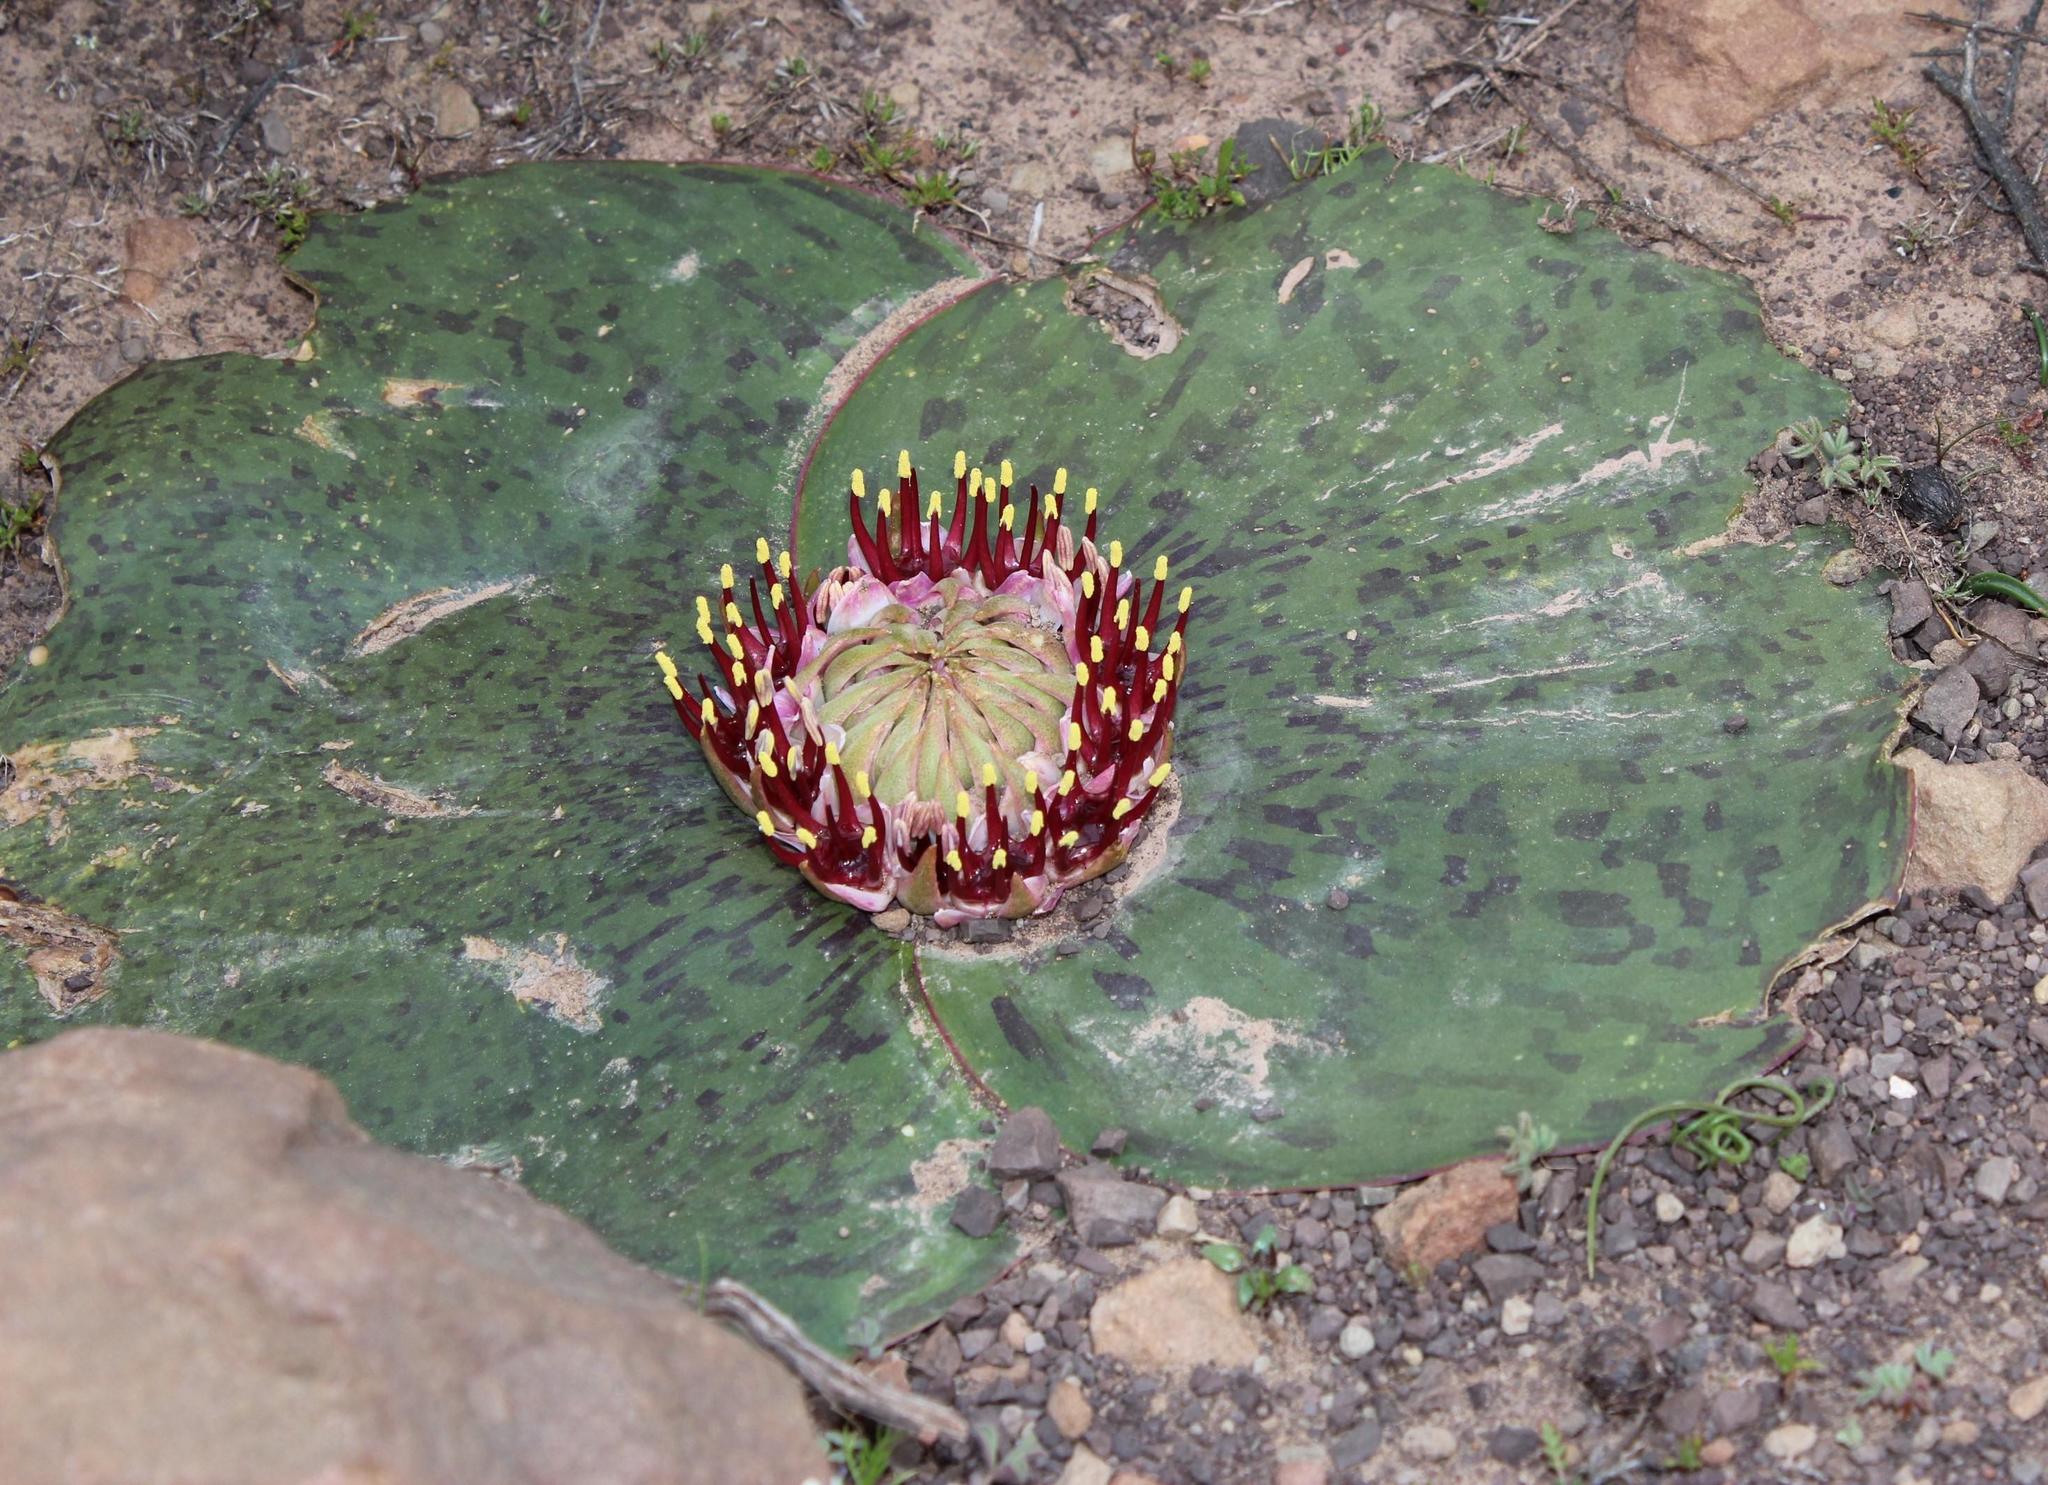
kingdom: Plantae
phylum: Tracheophyta
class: Liliopsida
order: Asparagales
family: Asparagaceae
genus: Massonia
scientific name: Massonia depressa
